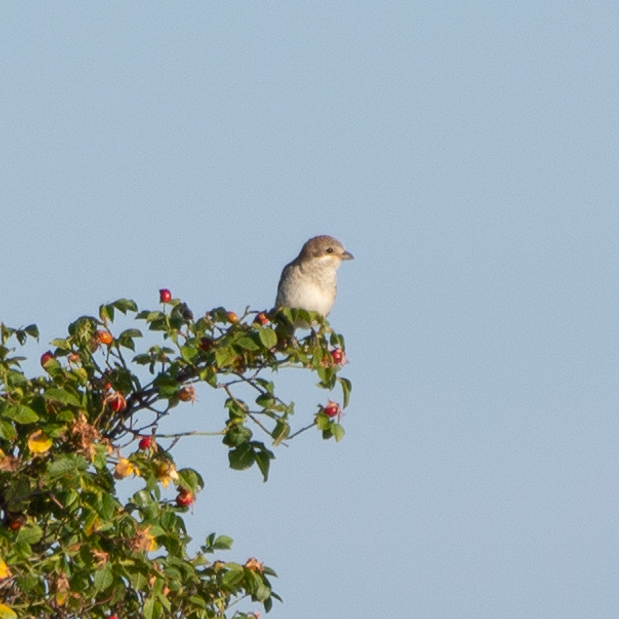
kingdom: Animalia
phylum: Chordata
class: Aves
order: Passeriformes
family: Laniidae
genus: Lanius
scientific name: Lanius senator
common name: Woodchat shrike
